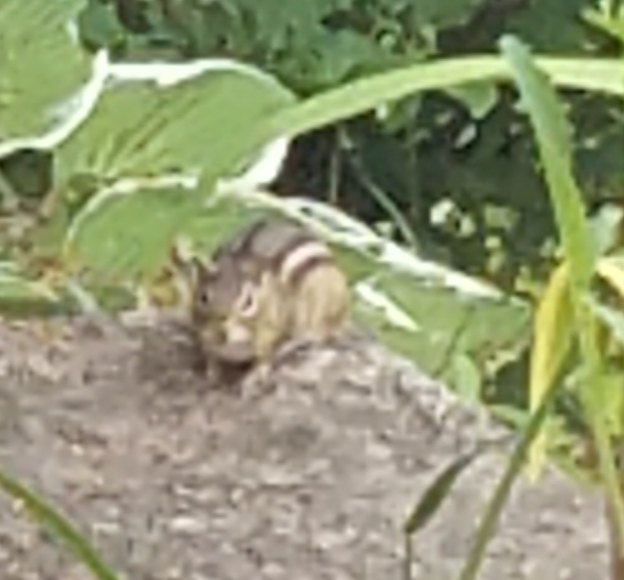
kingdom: Animalia
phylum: Chordata
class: Mammalia
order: Rodentia
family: Sciuridae
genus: Tamias
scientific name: Tamias striatus
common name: Eastern chipmunk
